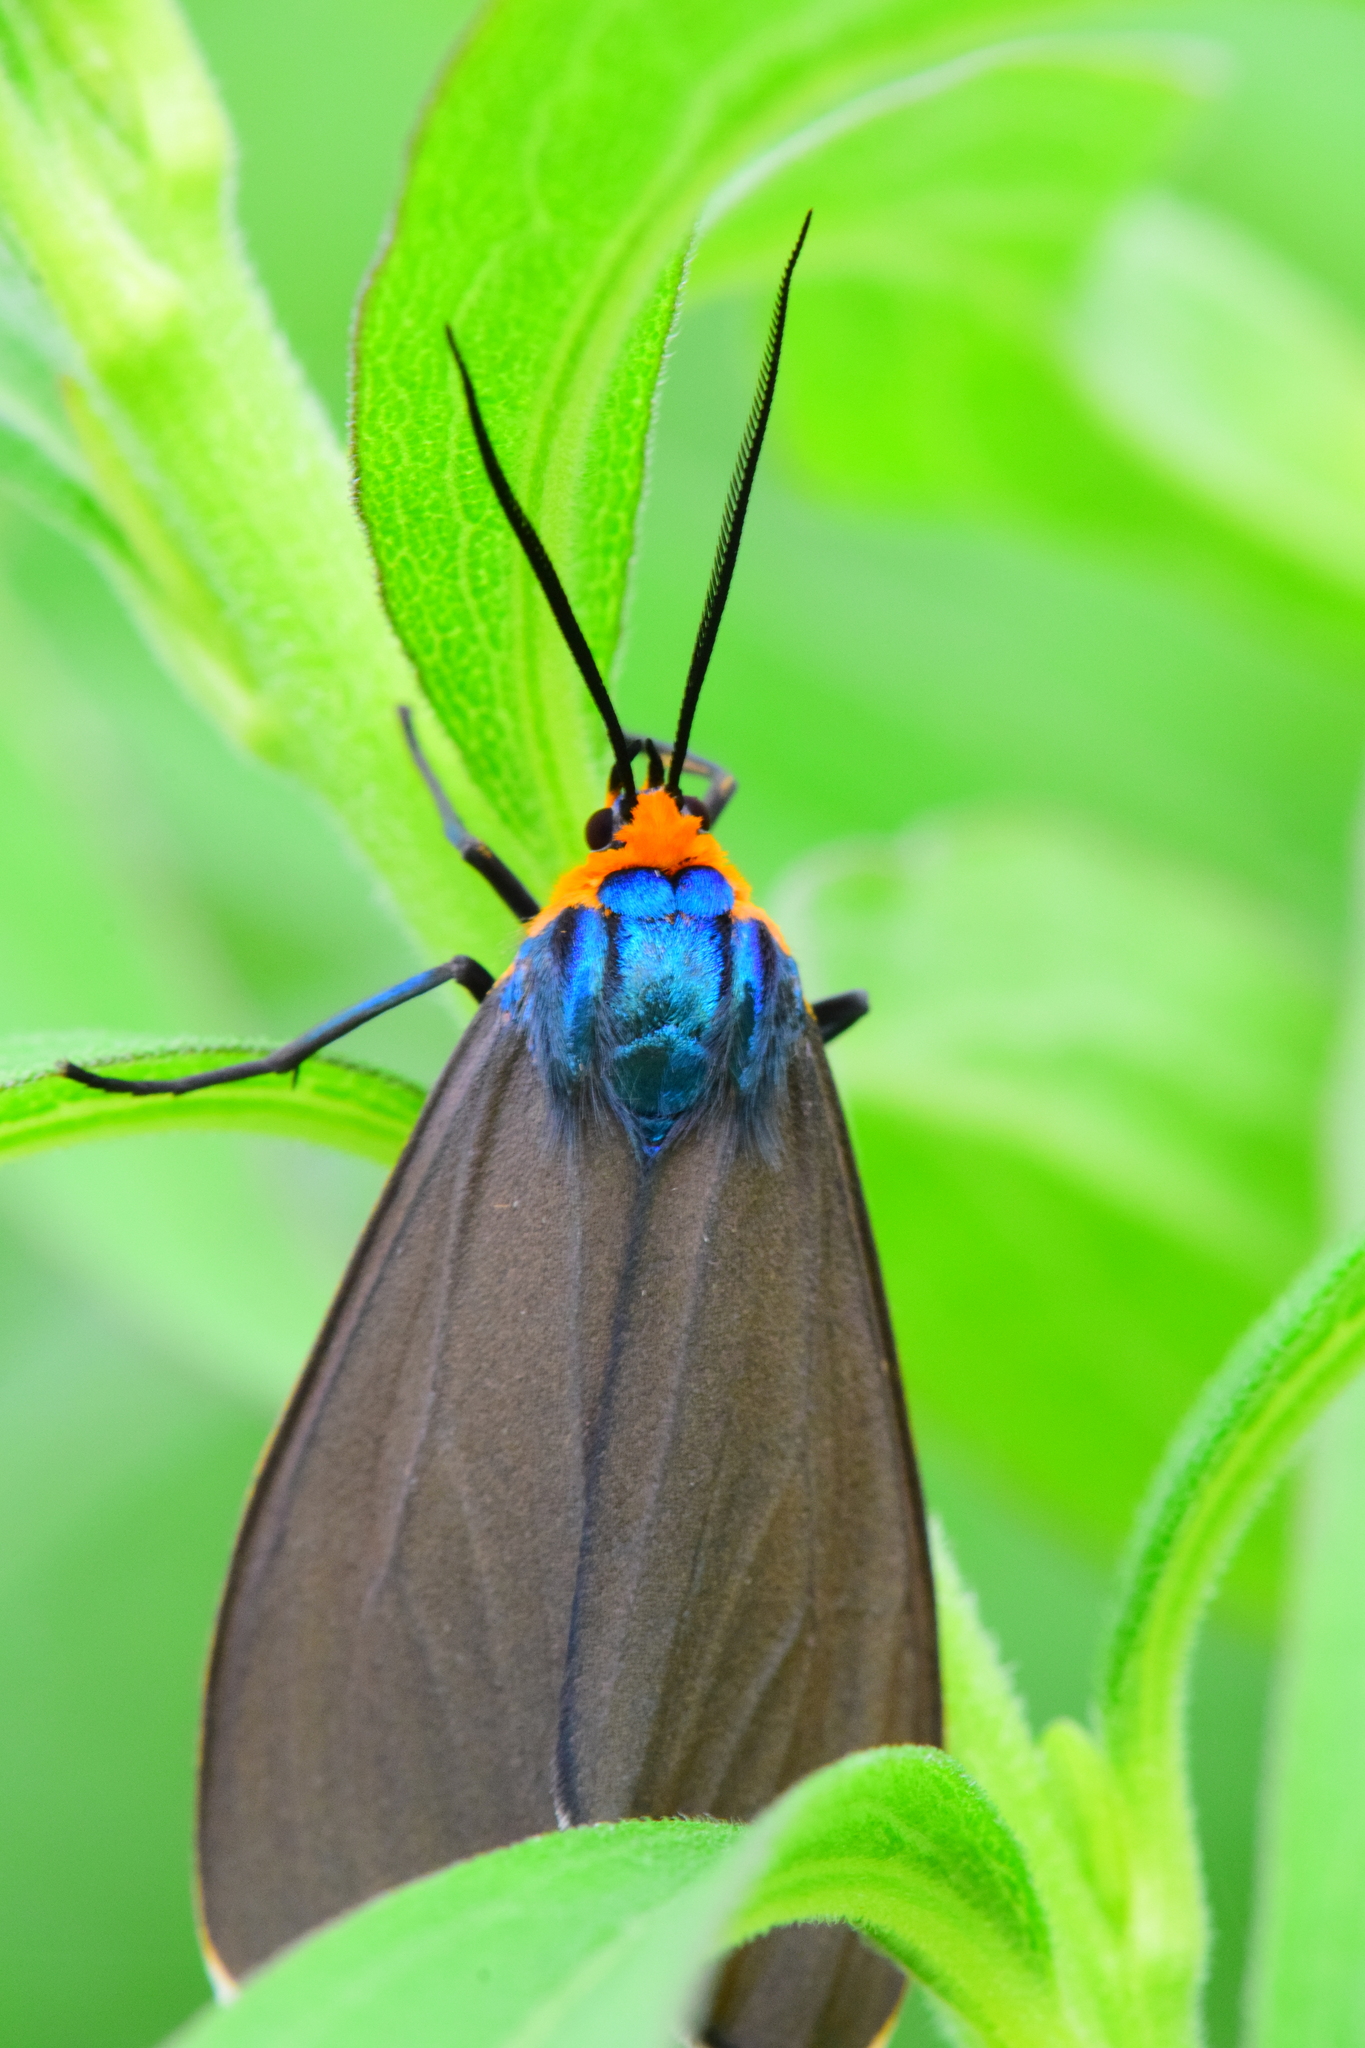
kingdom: Animalia
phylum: Arthropoda
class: Insecta
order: Lepidoptera
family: Erebidae
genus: Ctenucha
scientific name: Ctenucha virginica
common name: Virginia ctenucha moth
